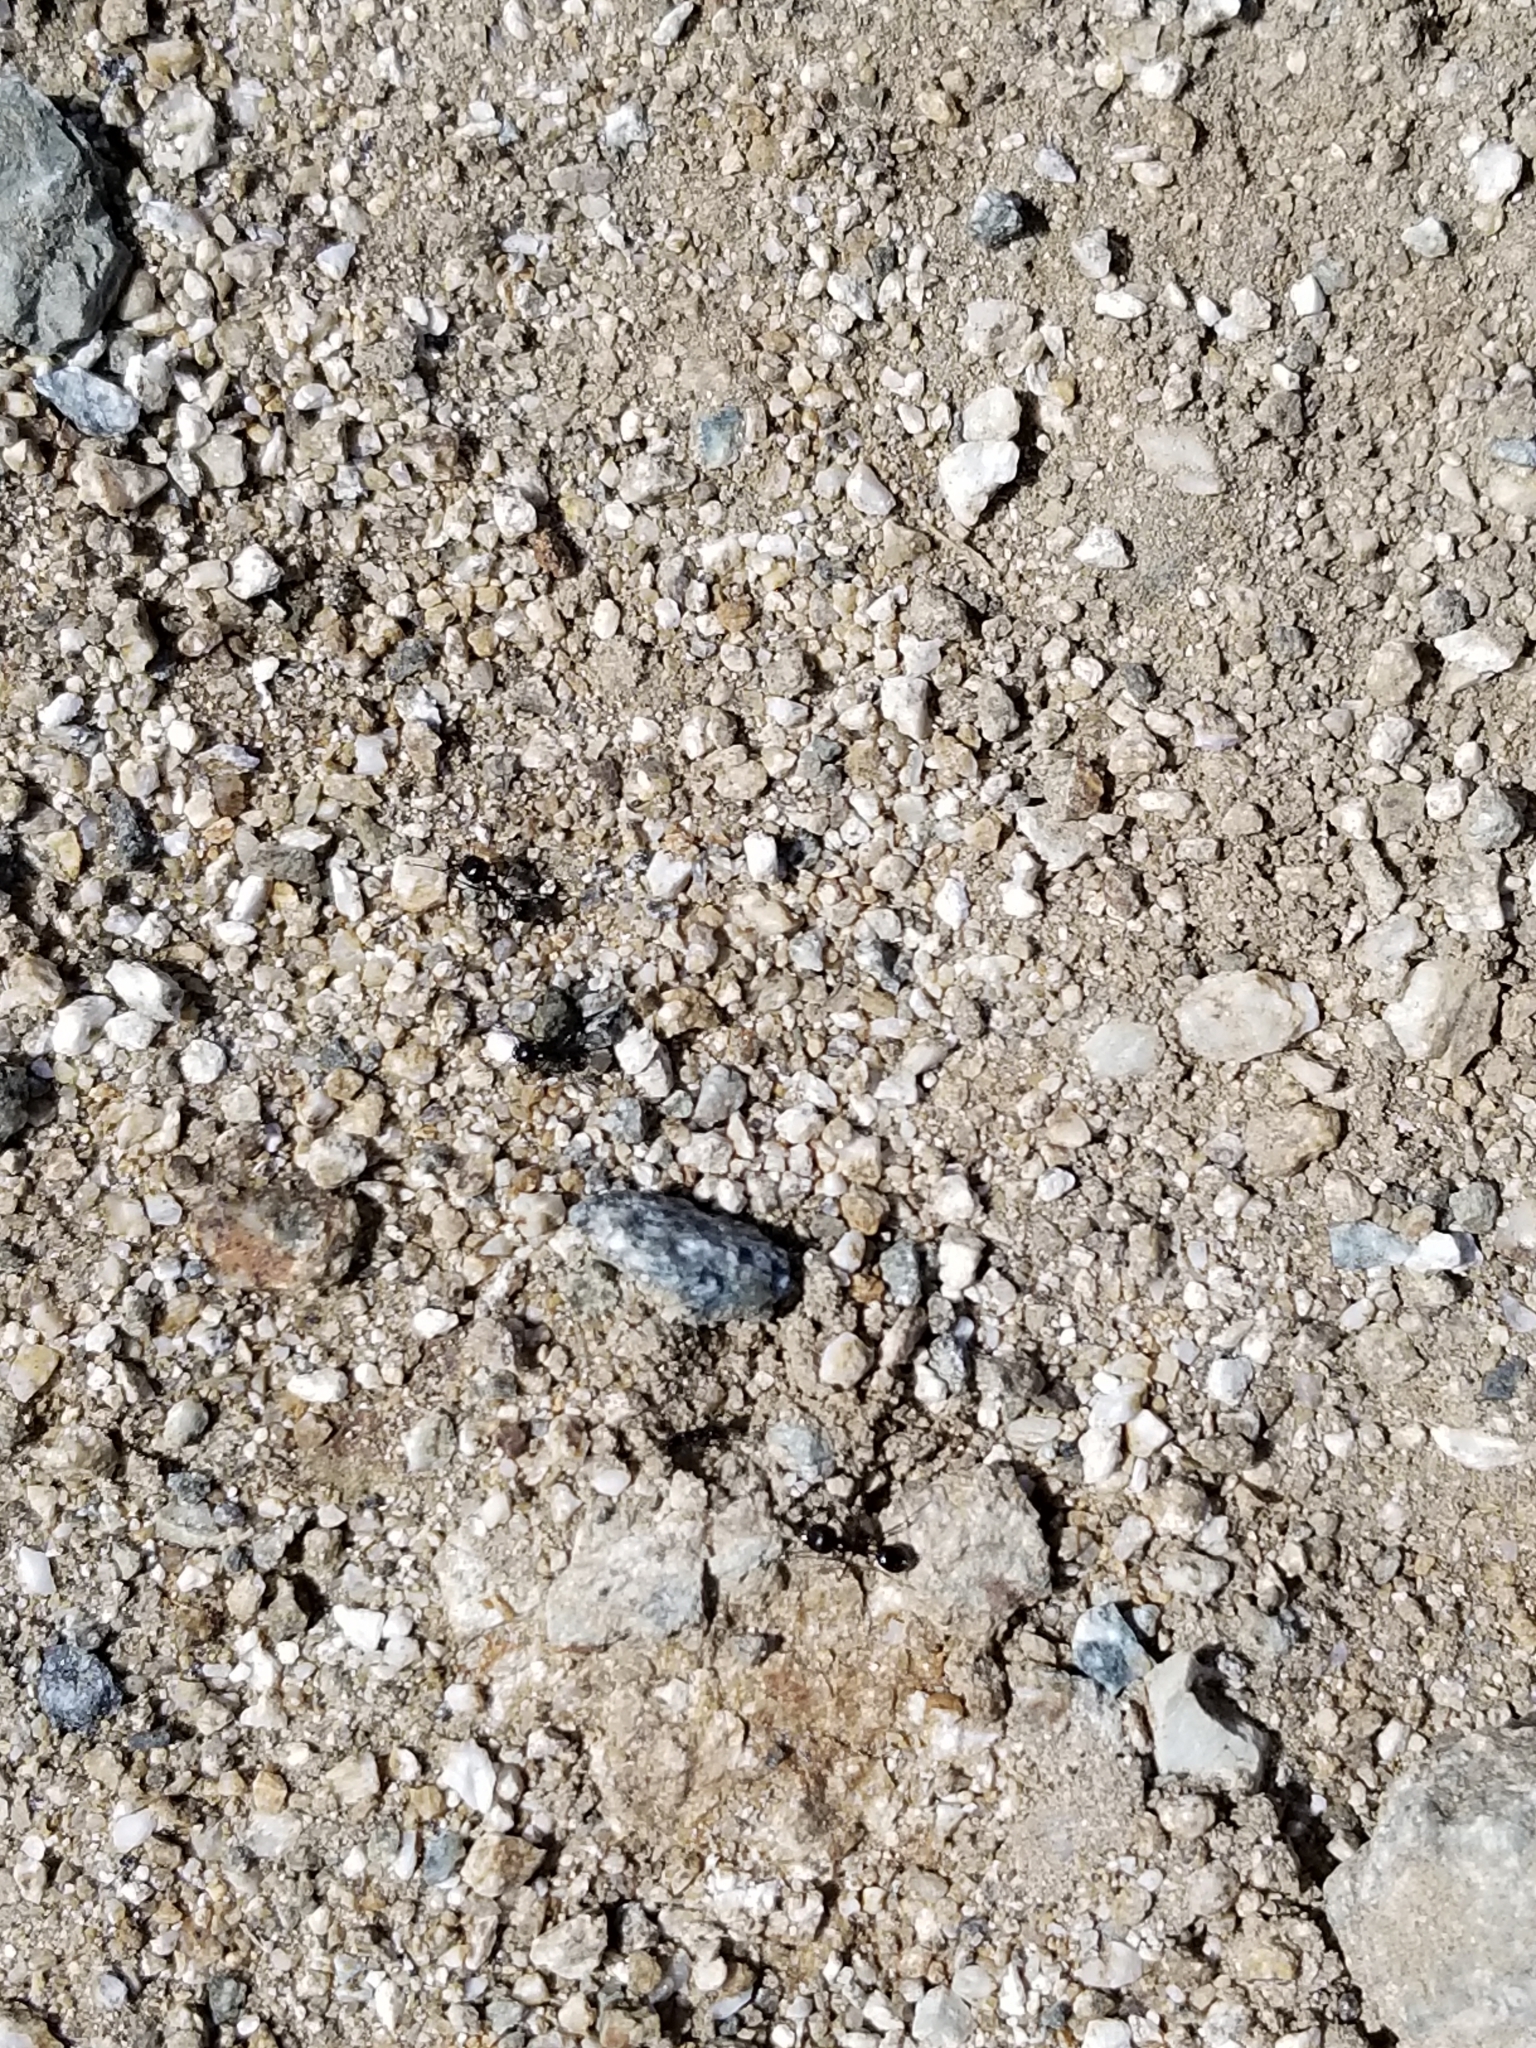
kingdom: Animalia
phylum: Arthropoda
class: Insecta
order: Hymenoptera
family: Formicidae
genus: Messor
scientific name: Messor pergandei
